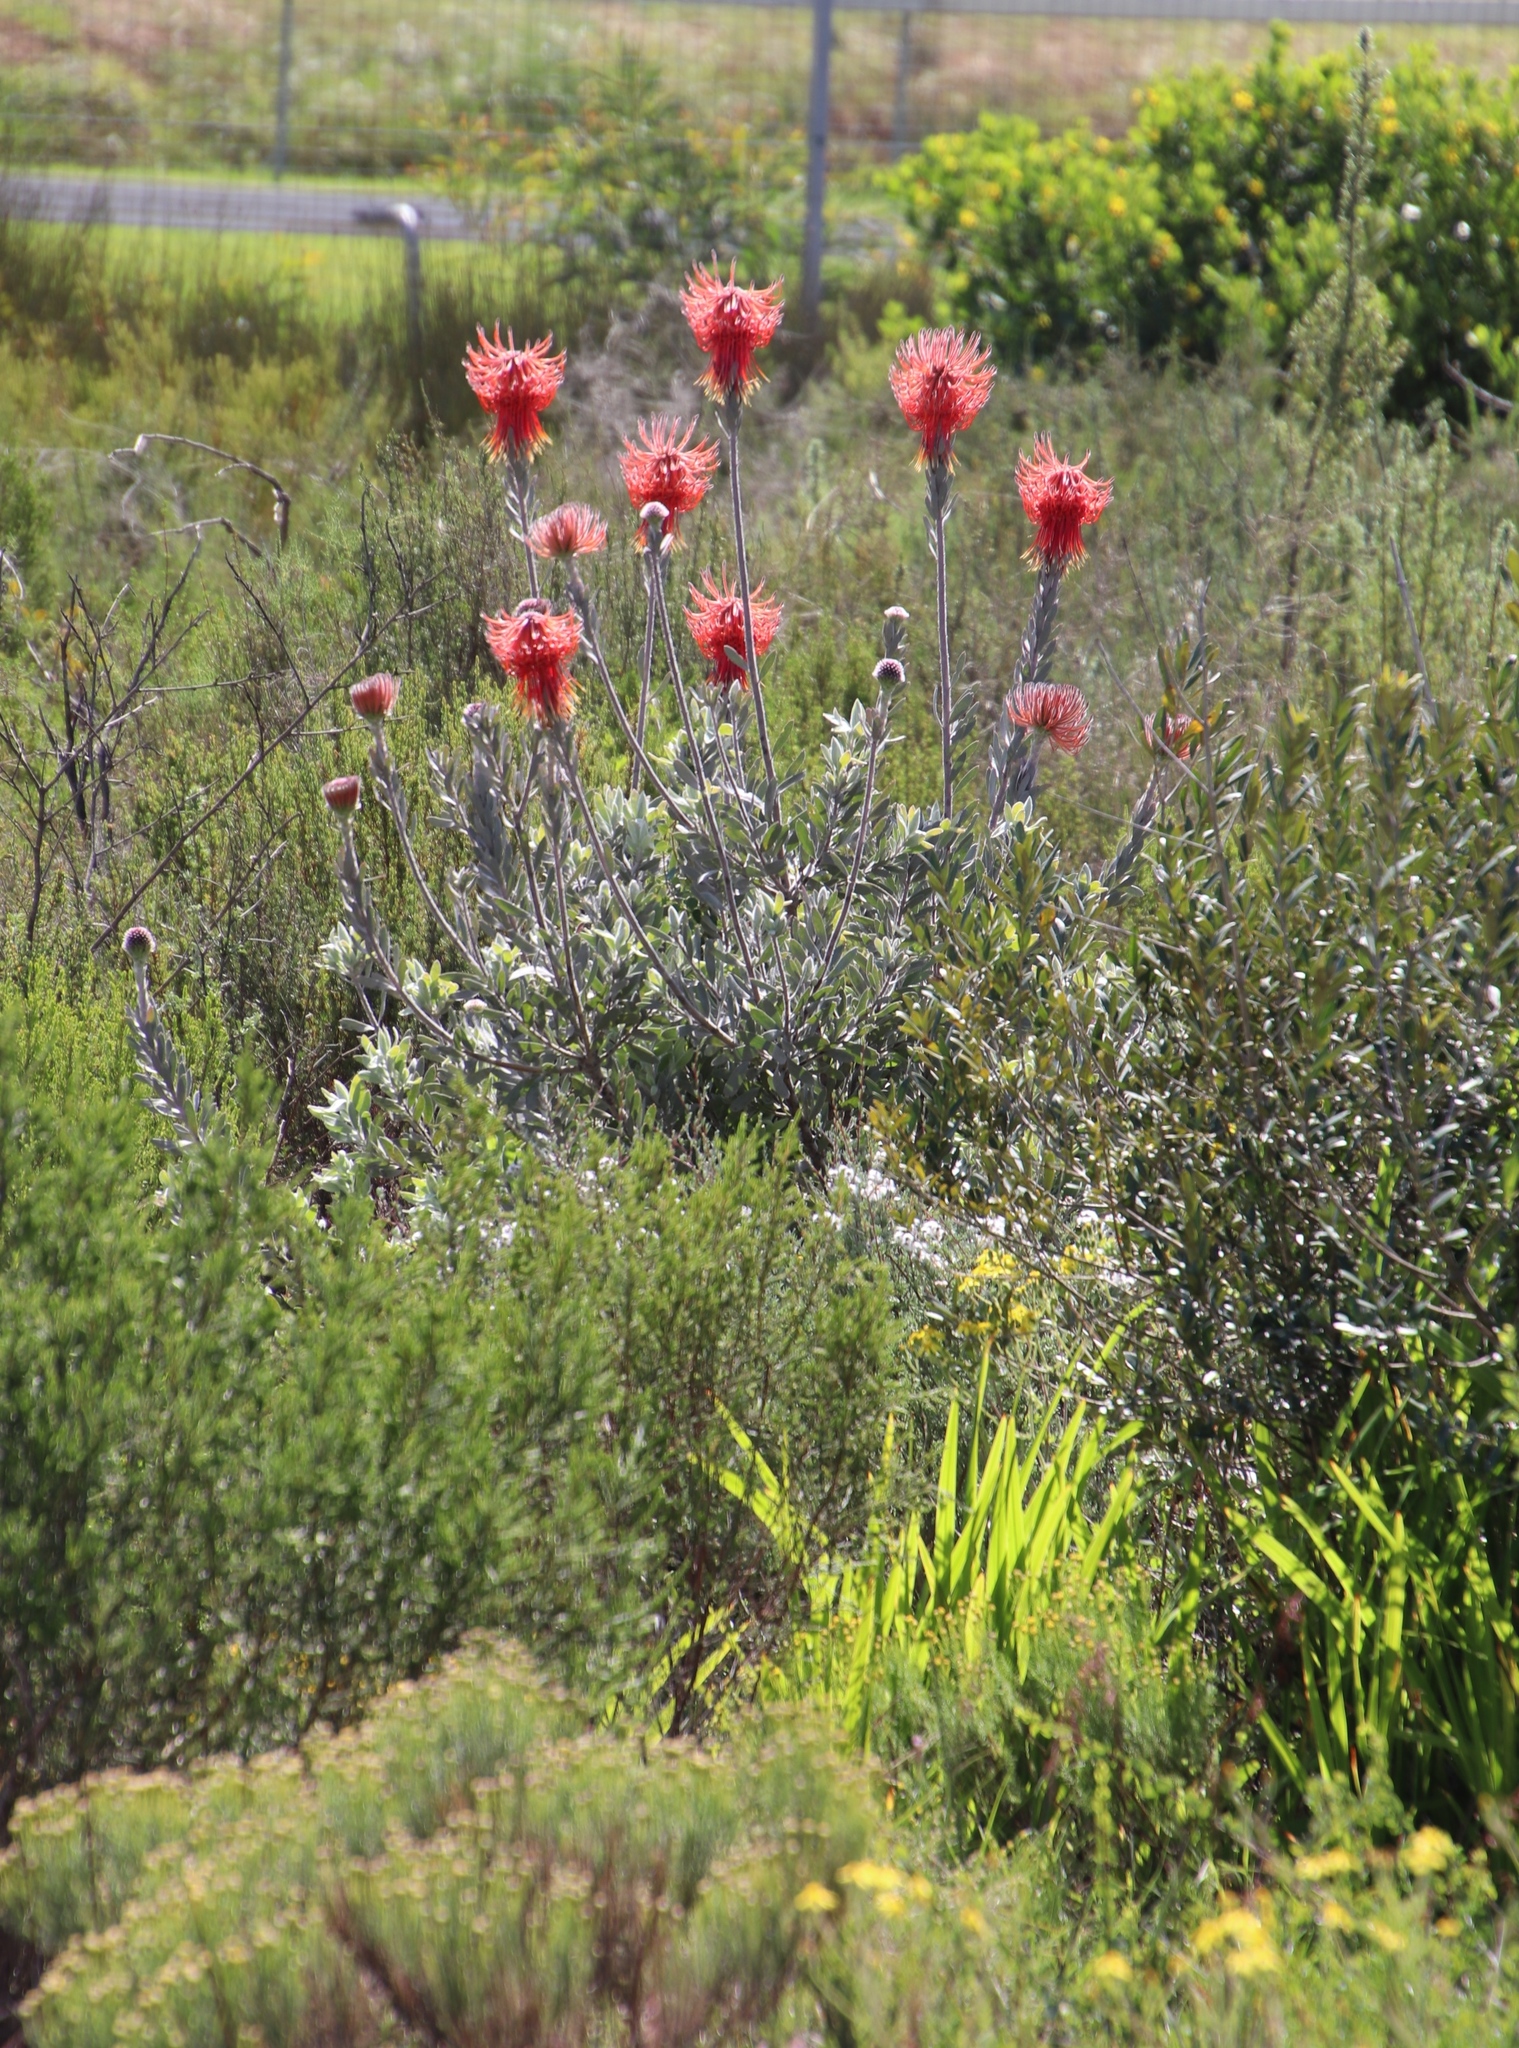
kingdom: Plantae
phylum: Tracheophyta
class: Magnoliopsida
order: Proteales
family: Proteaceae
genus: Leucospermum
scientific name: Leucospermum reflexum
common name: Rocket pincushion
